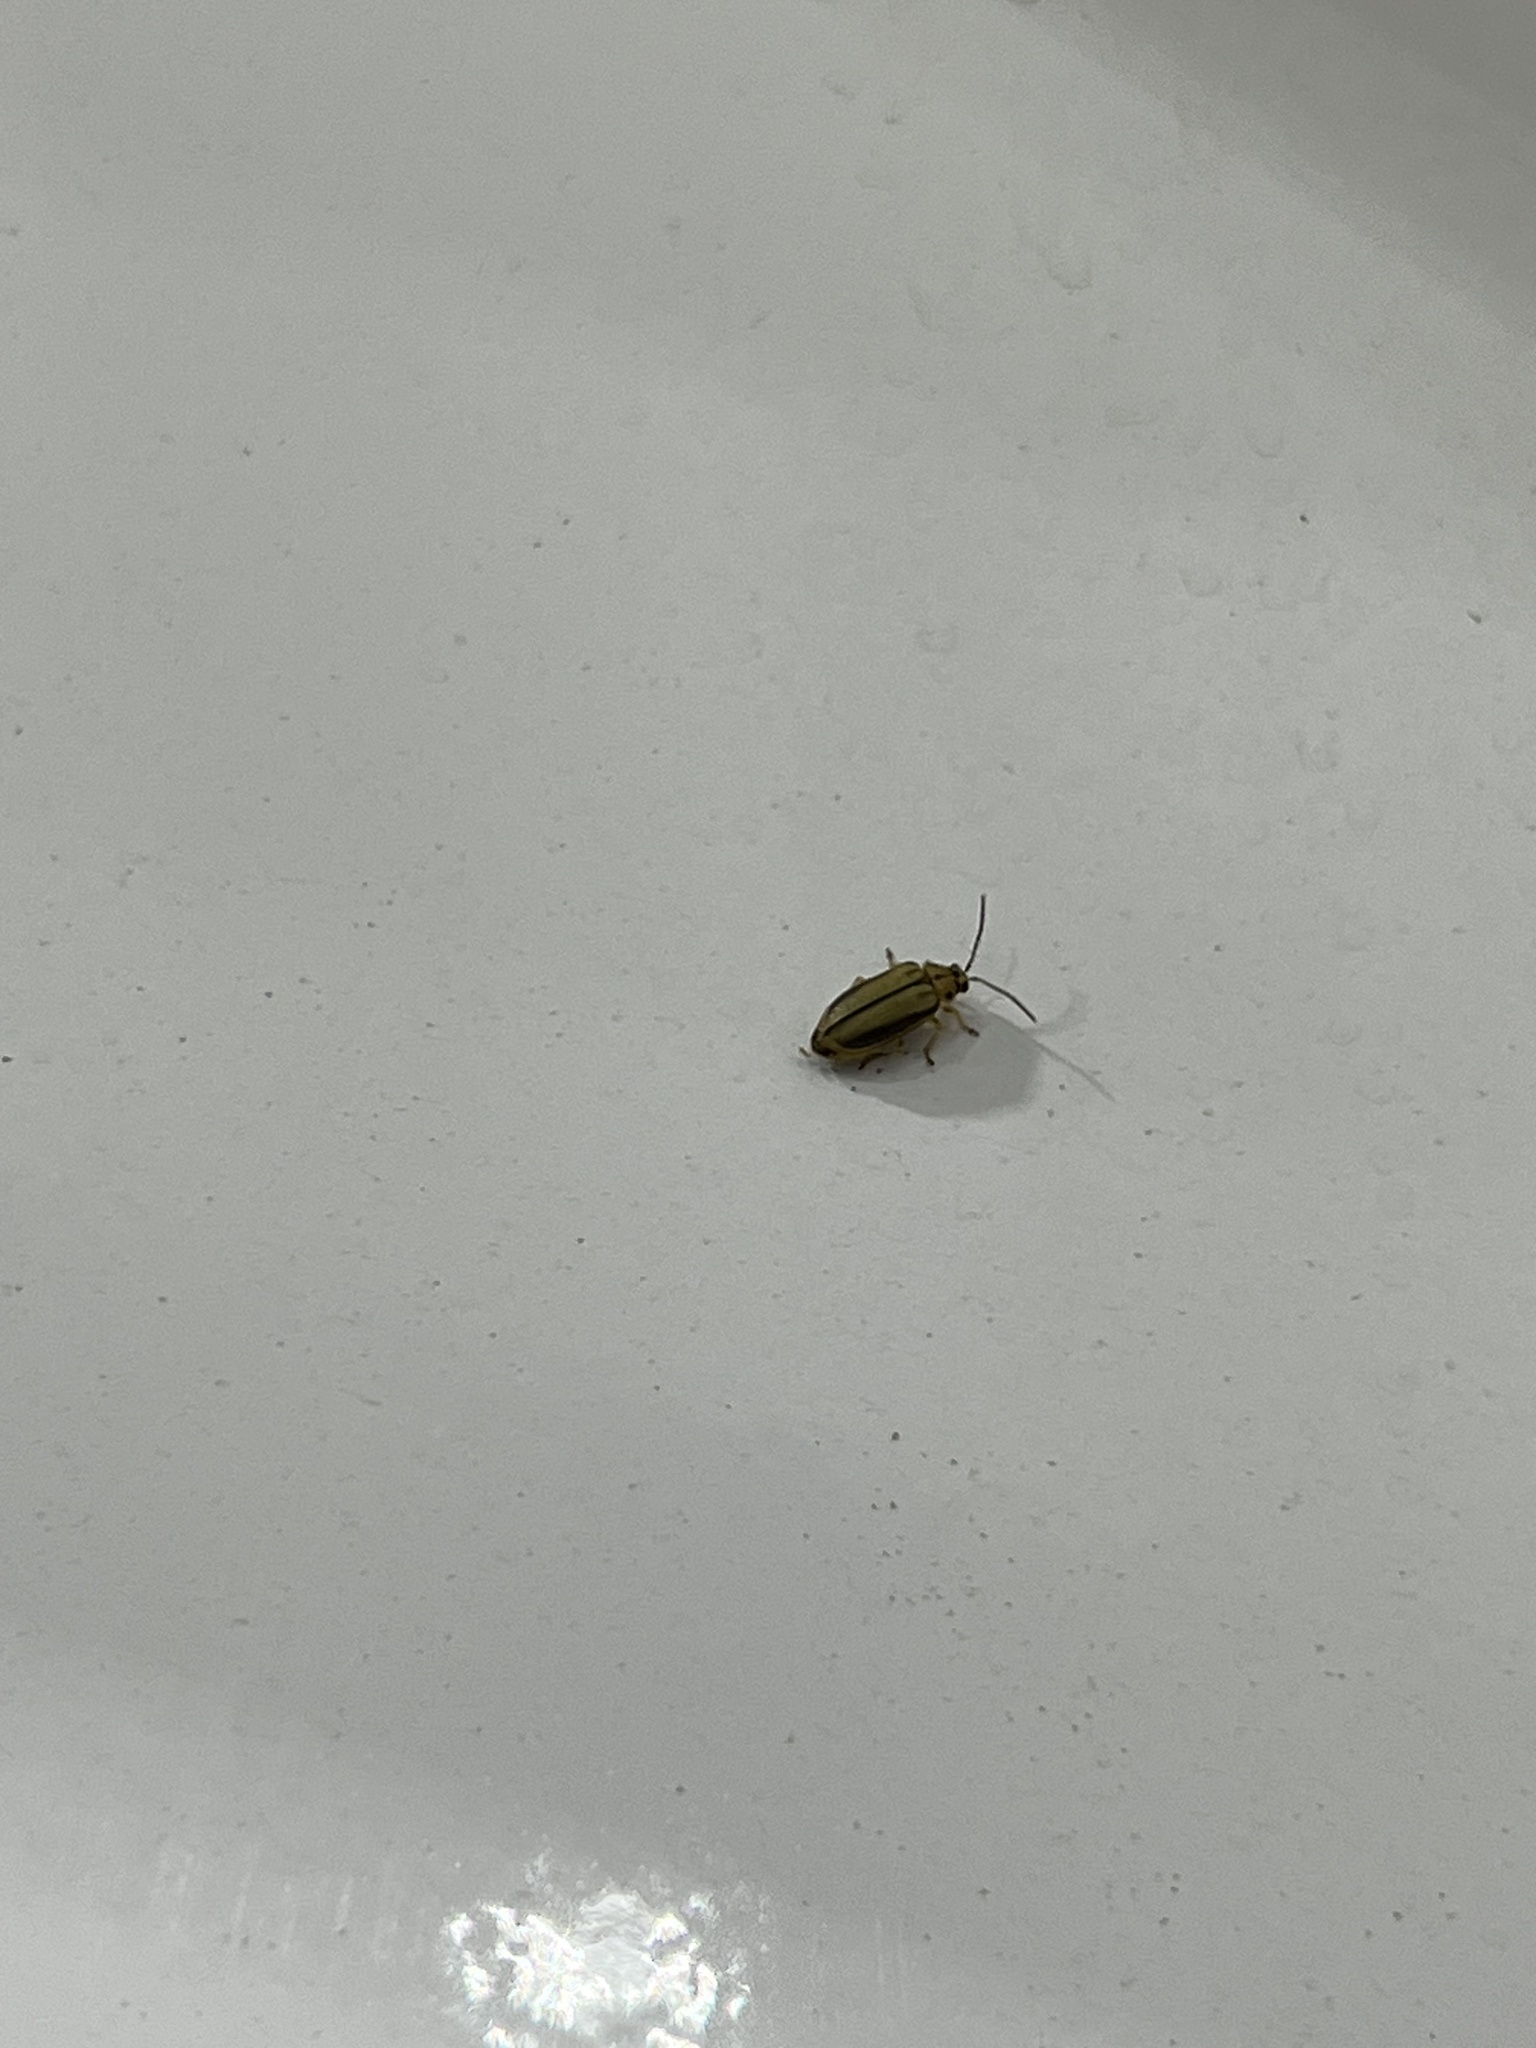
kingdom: Animalia
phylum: Arthropoda
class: Insecta
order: Coleoptera
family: Chrysomelidae
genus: Xanthogaleruca
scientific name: Xanthogaleruca luteola
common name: Elm leaf beetle
